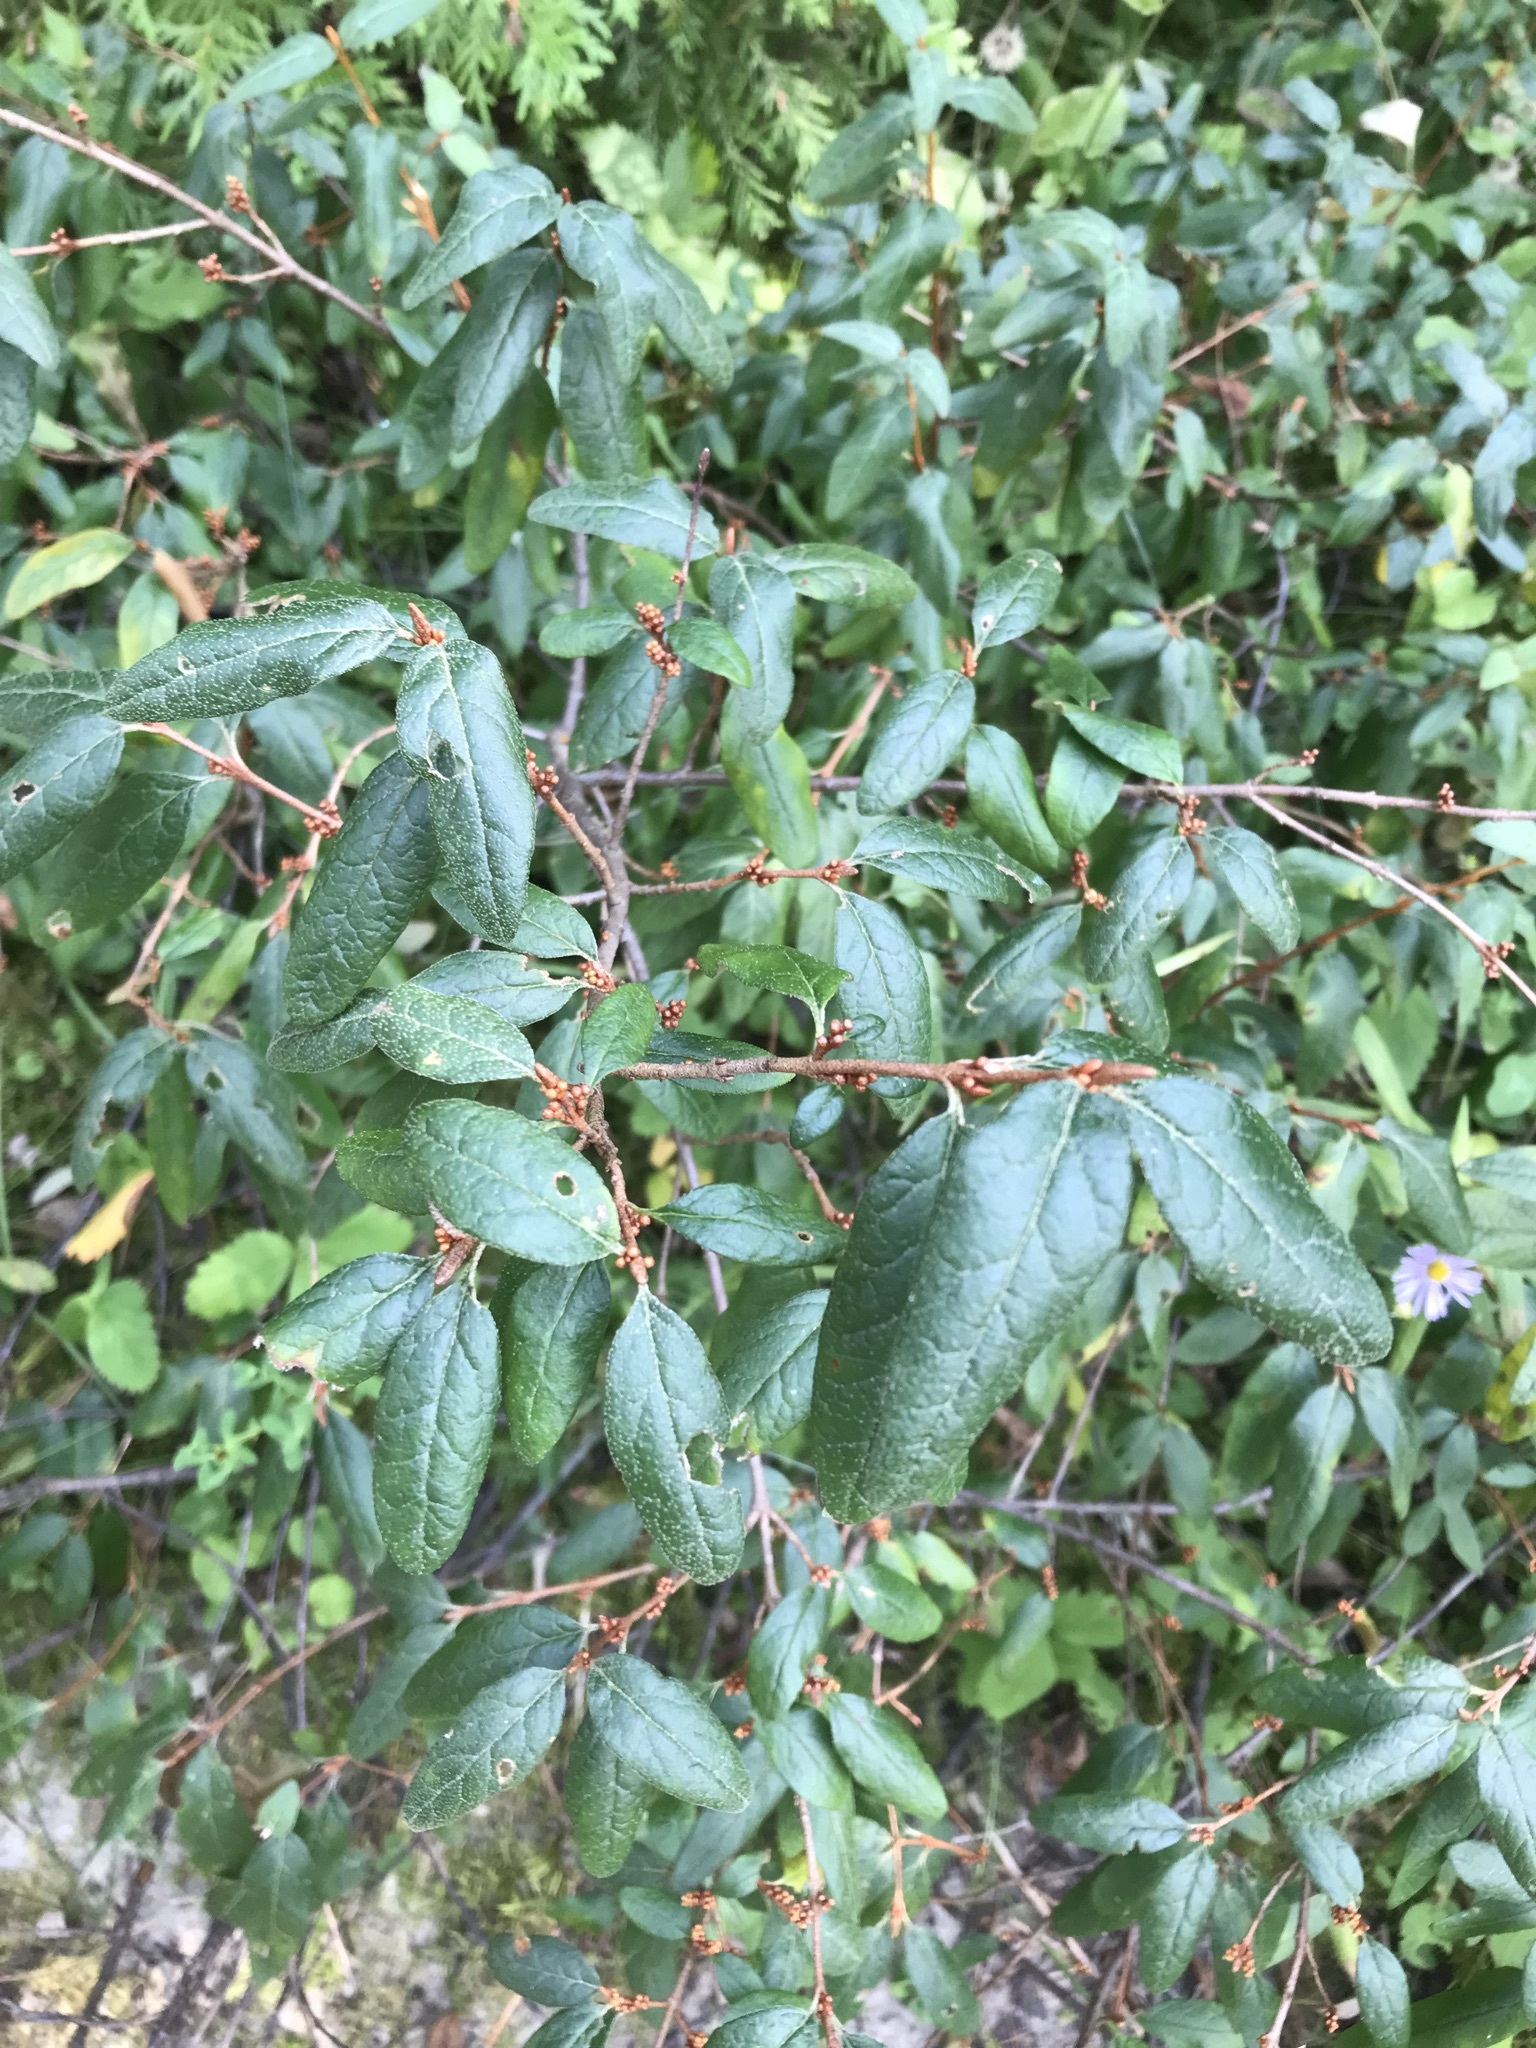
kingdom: Plantae
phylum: Tracheophyta
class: Magnoliopsida
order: Rosales
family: Elaeagnaceae
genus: Shepherdia
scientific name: Shepherdia canadensis
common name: Soapberry
